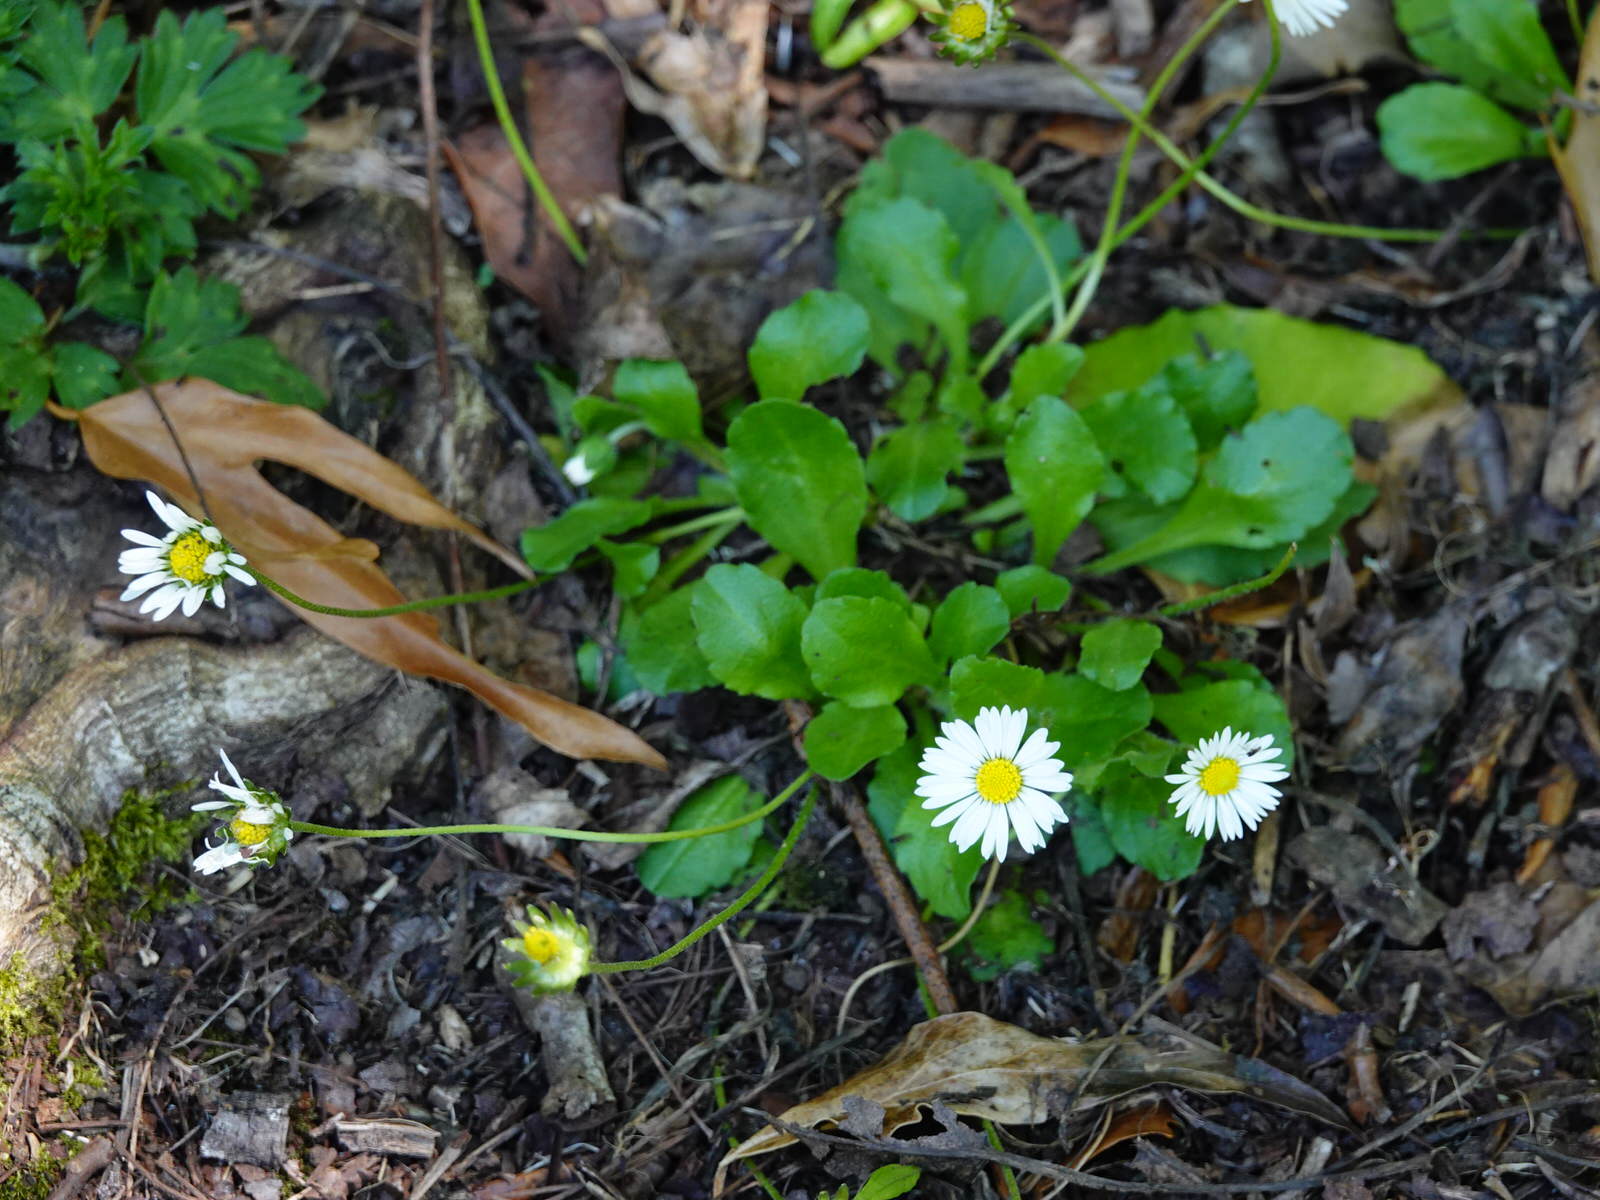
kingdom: Plantae
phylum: Tracheophyta
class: Magnoliopsida
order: Asterales
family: Asteraceae
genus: Bellis
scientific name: Bellis perennis
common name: Lawndaisy
